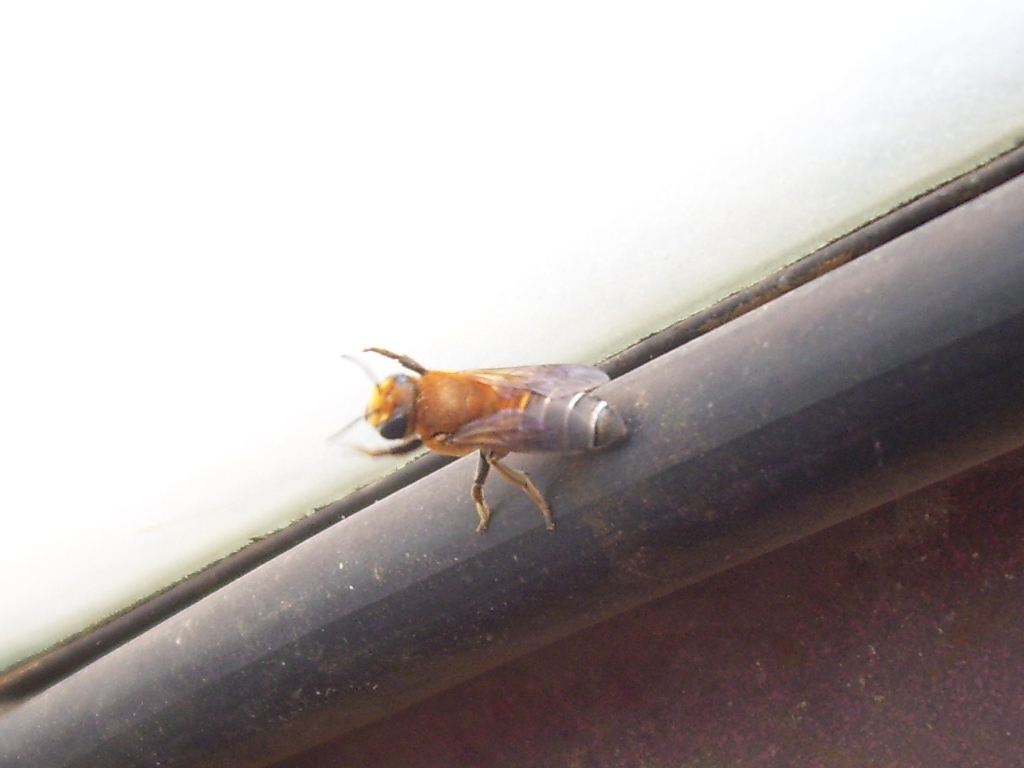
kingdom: Animalia
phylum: Arthropoda
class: Insecta
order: Hymenoptera
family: Megachilidae
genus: Megachile
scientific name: Megachile lanata
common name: Wooly wall bee
